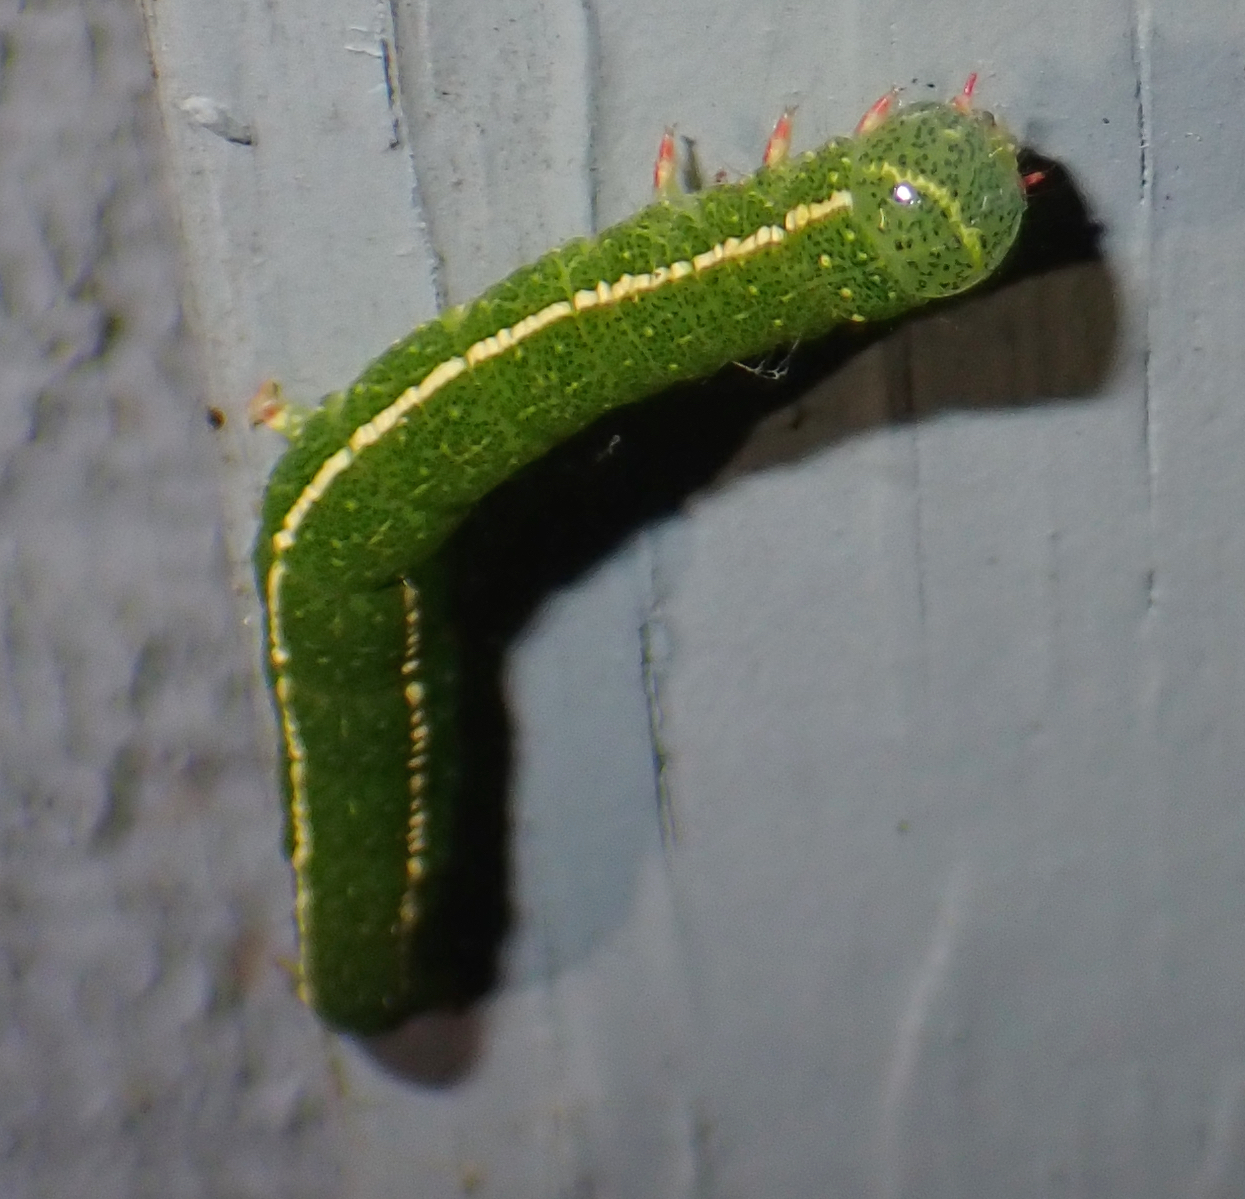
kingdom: Animalia
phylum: Arthropoda
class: Insecta
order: Lepidoptera
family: Erebidae
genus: Panopoda
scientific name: Panopoda rufimargo
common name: Red-lined panopoda moth
